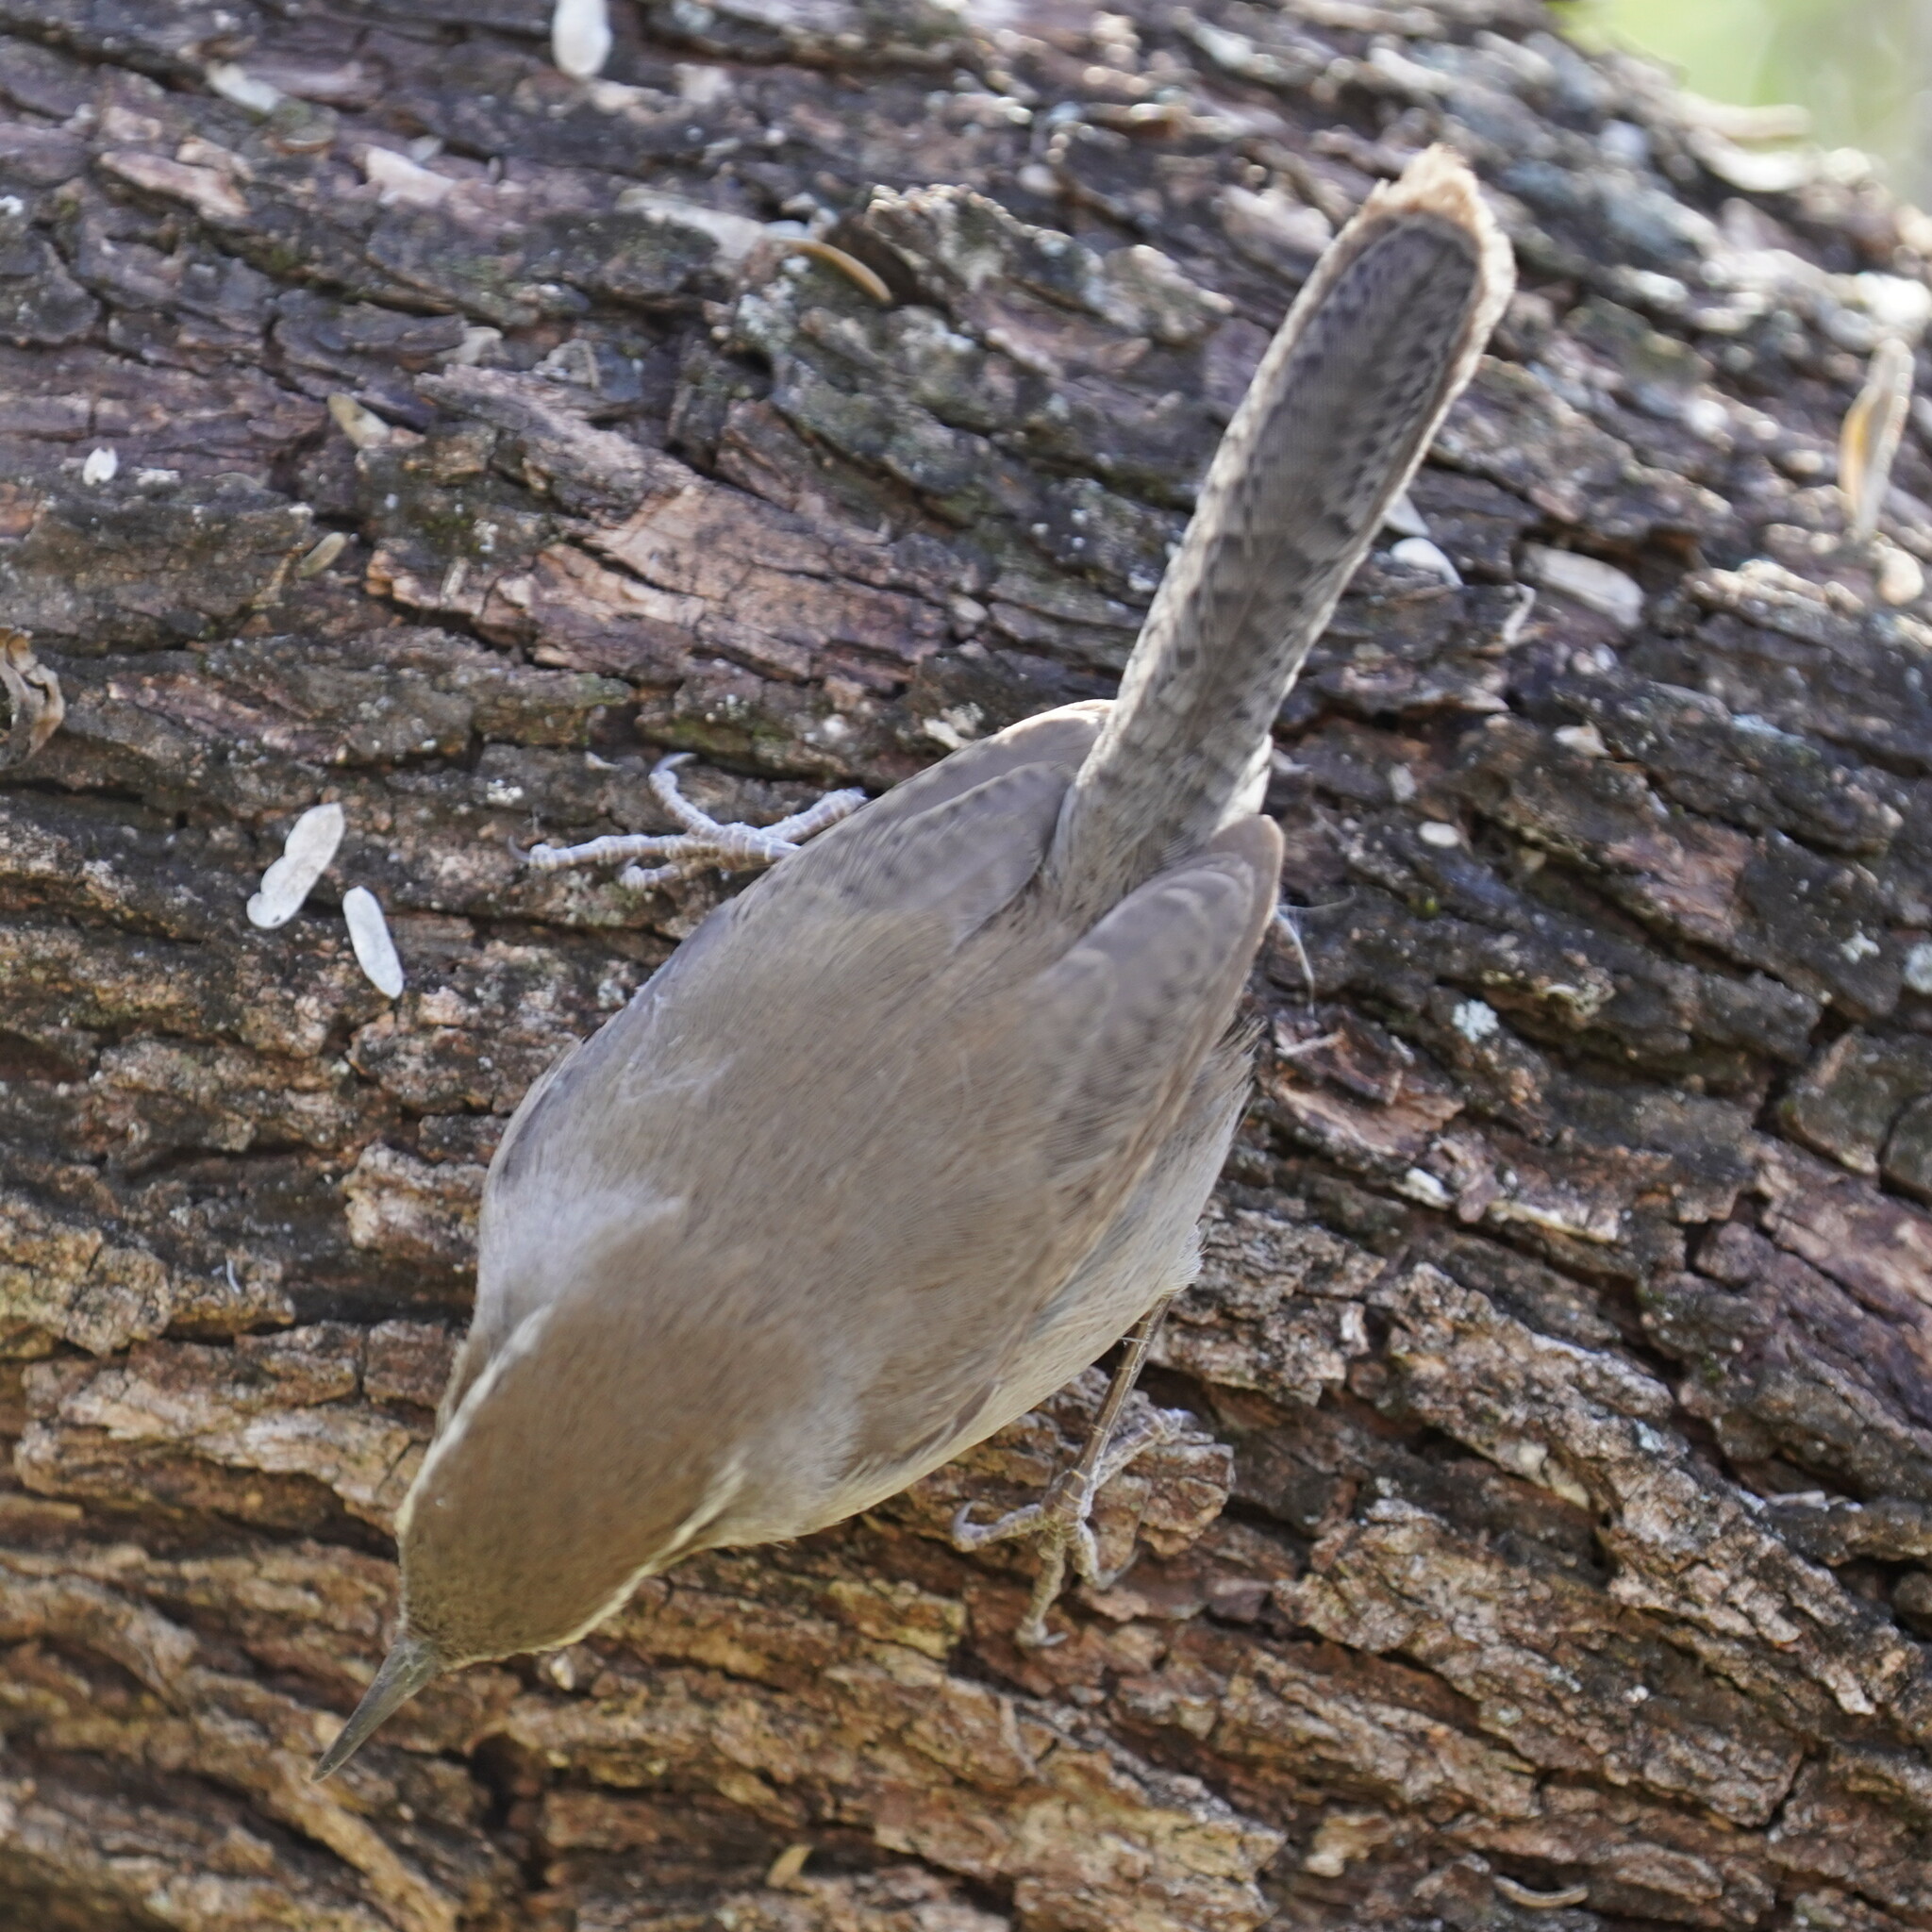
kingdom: Animalia
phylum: Chordata
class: Aves
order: Passeriformes
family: Troglodytidae
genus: Thryomanes
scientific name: Thryomanes bewickii
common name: Bewick's wren
